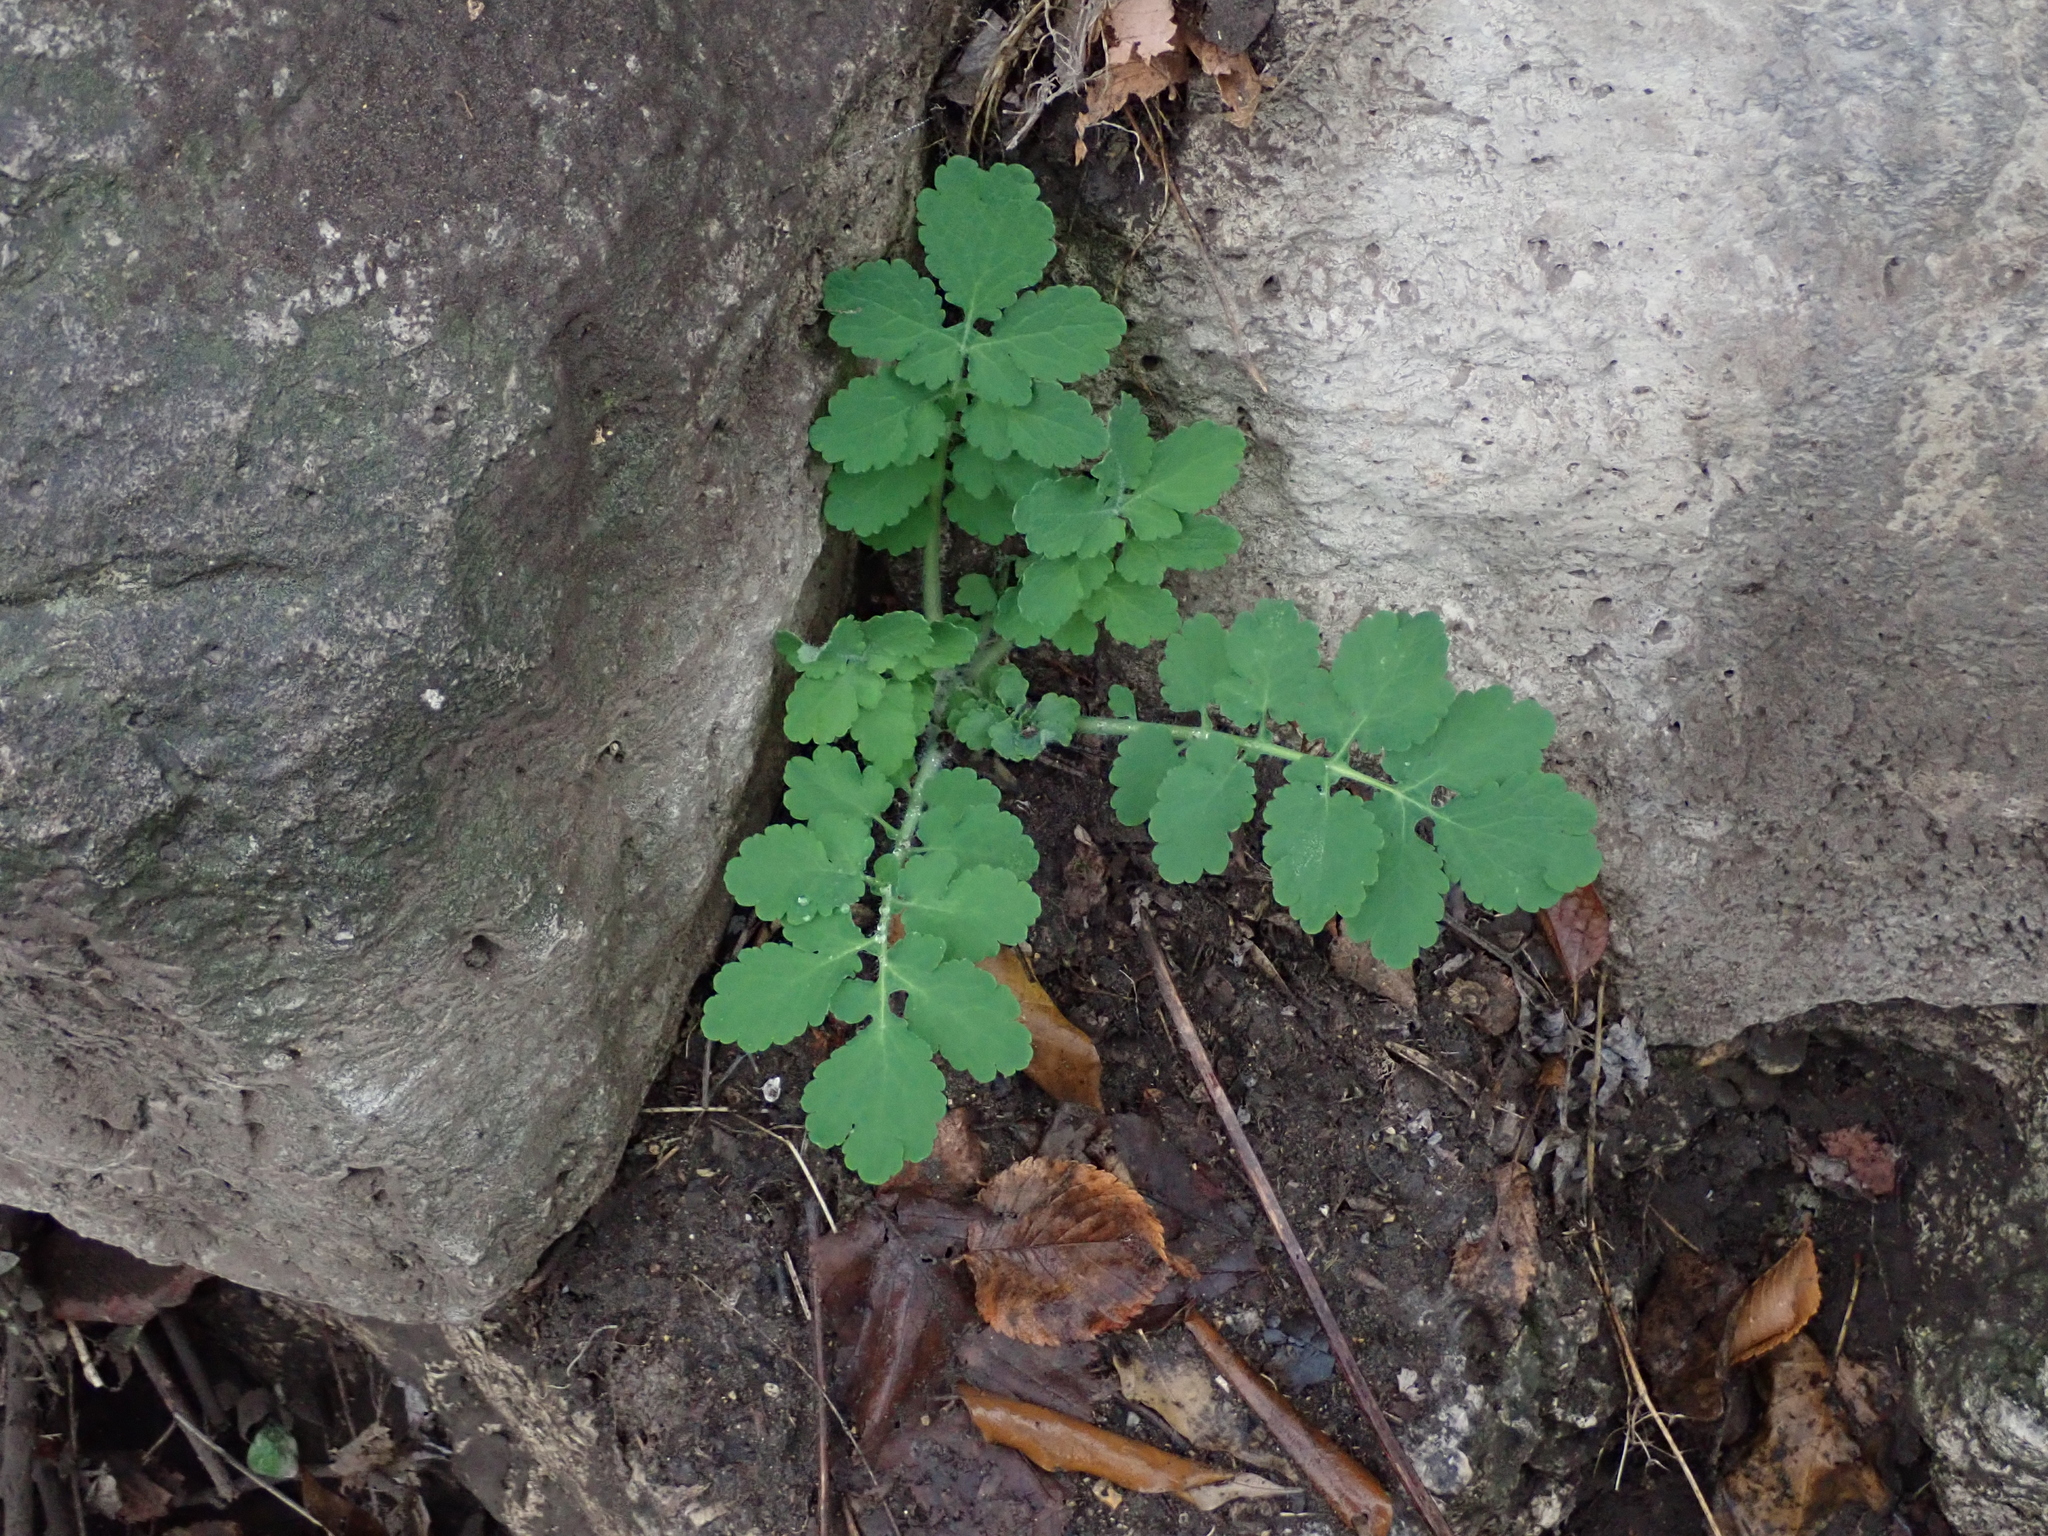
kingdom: Plantae
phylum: Tracheophyta
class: Magnoliopsida
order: Ranunculales
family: Papaveraceae
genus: Chelidonium
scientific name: Chelidonium majus
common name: Greater celandine
